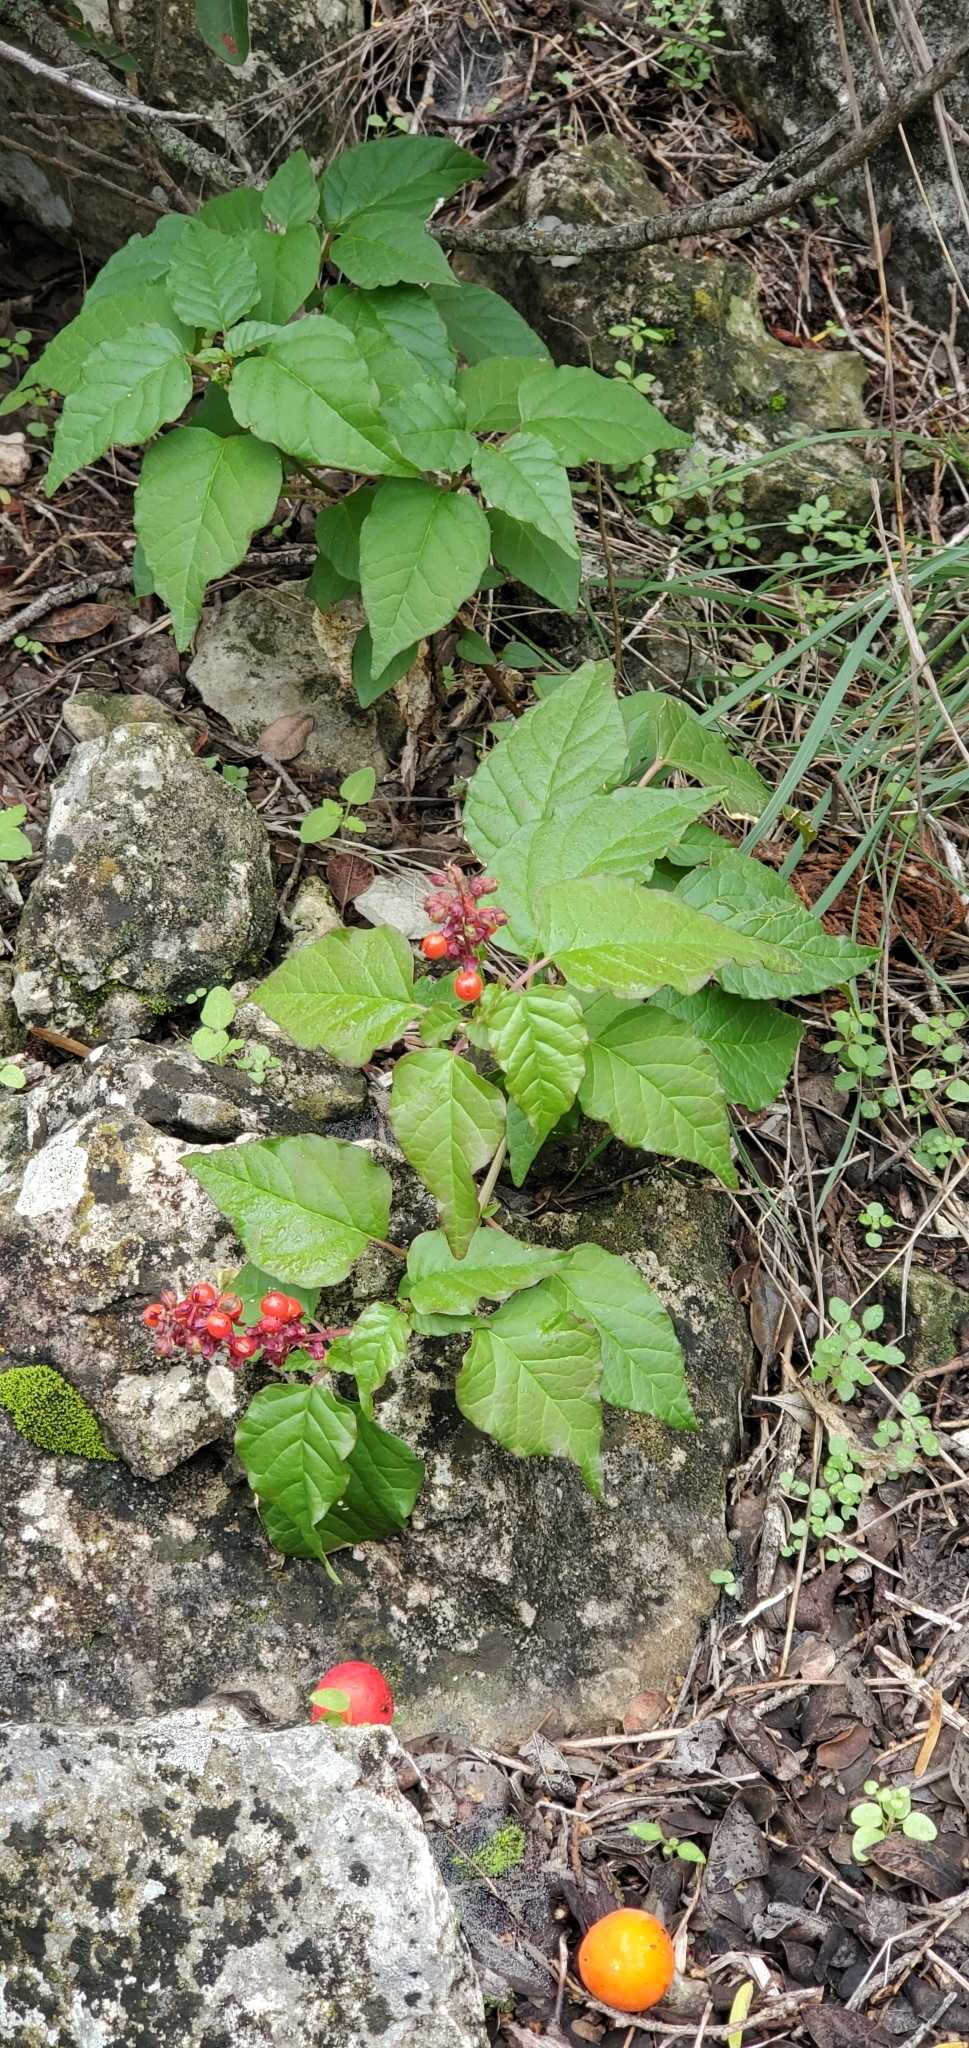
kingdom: Plantae
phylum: Tracheophyta
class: Magnoliopsida
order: Caryophyllales
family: Phytolaccaceae
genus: Rivina
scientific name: Rivina humilis
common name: Rougeplant
